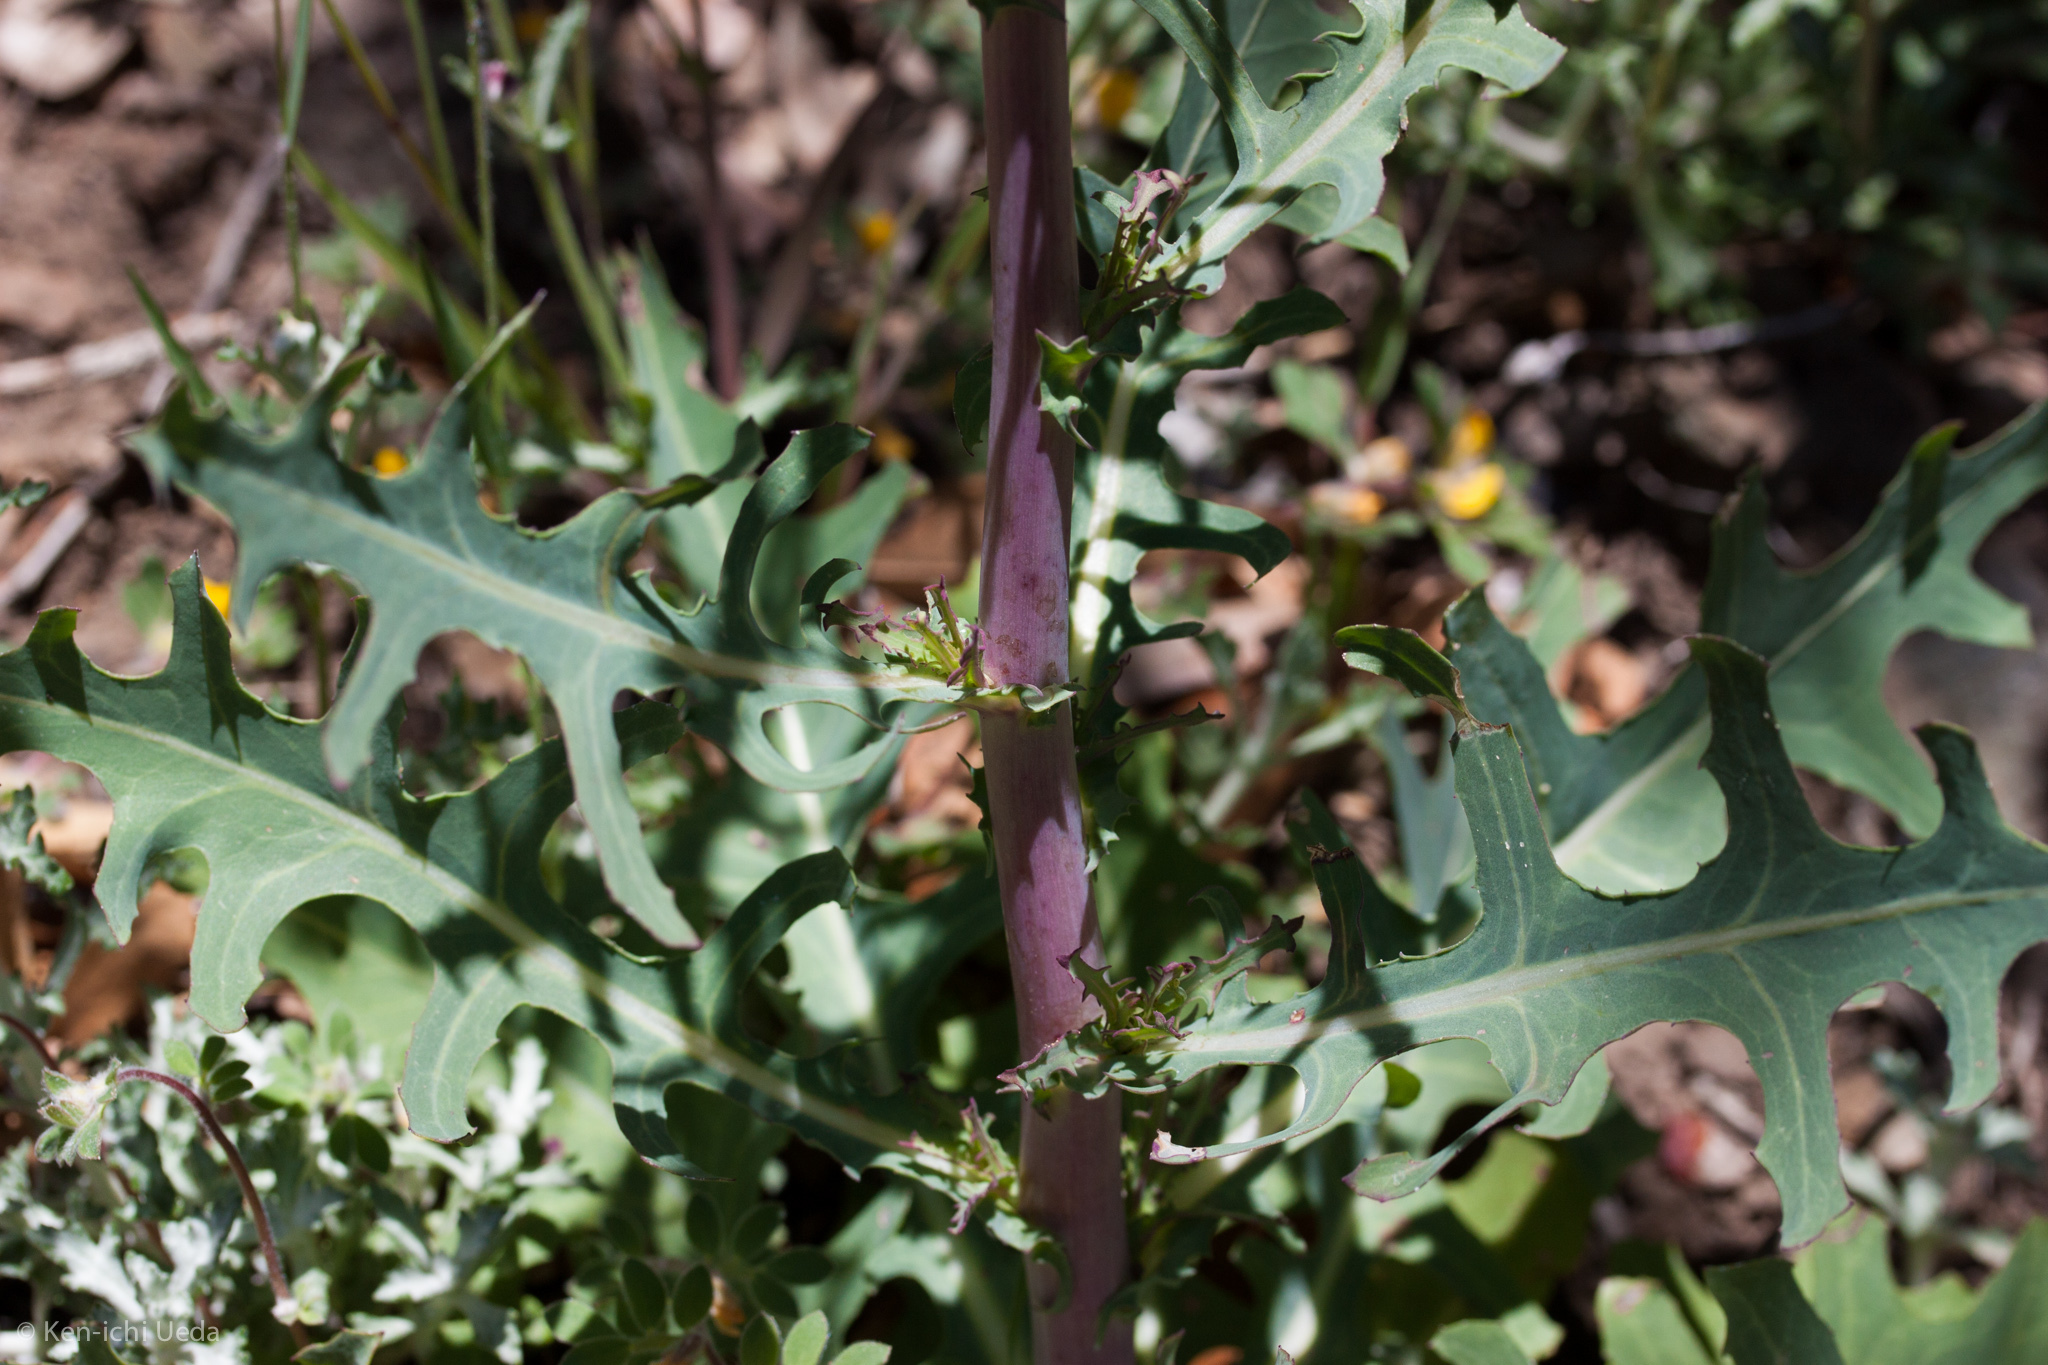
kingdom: Plantae
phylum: Tracheophyta
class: Magnoliopsida
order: Asterales
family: Asteraceae
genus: Rafinesquia
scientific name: Rafinesquia californica
